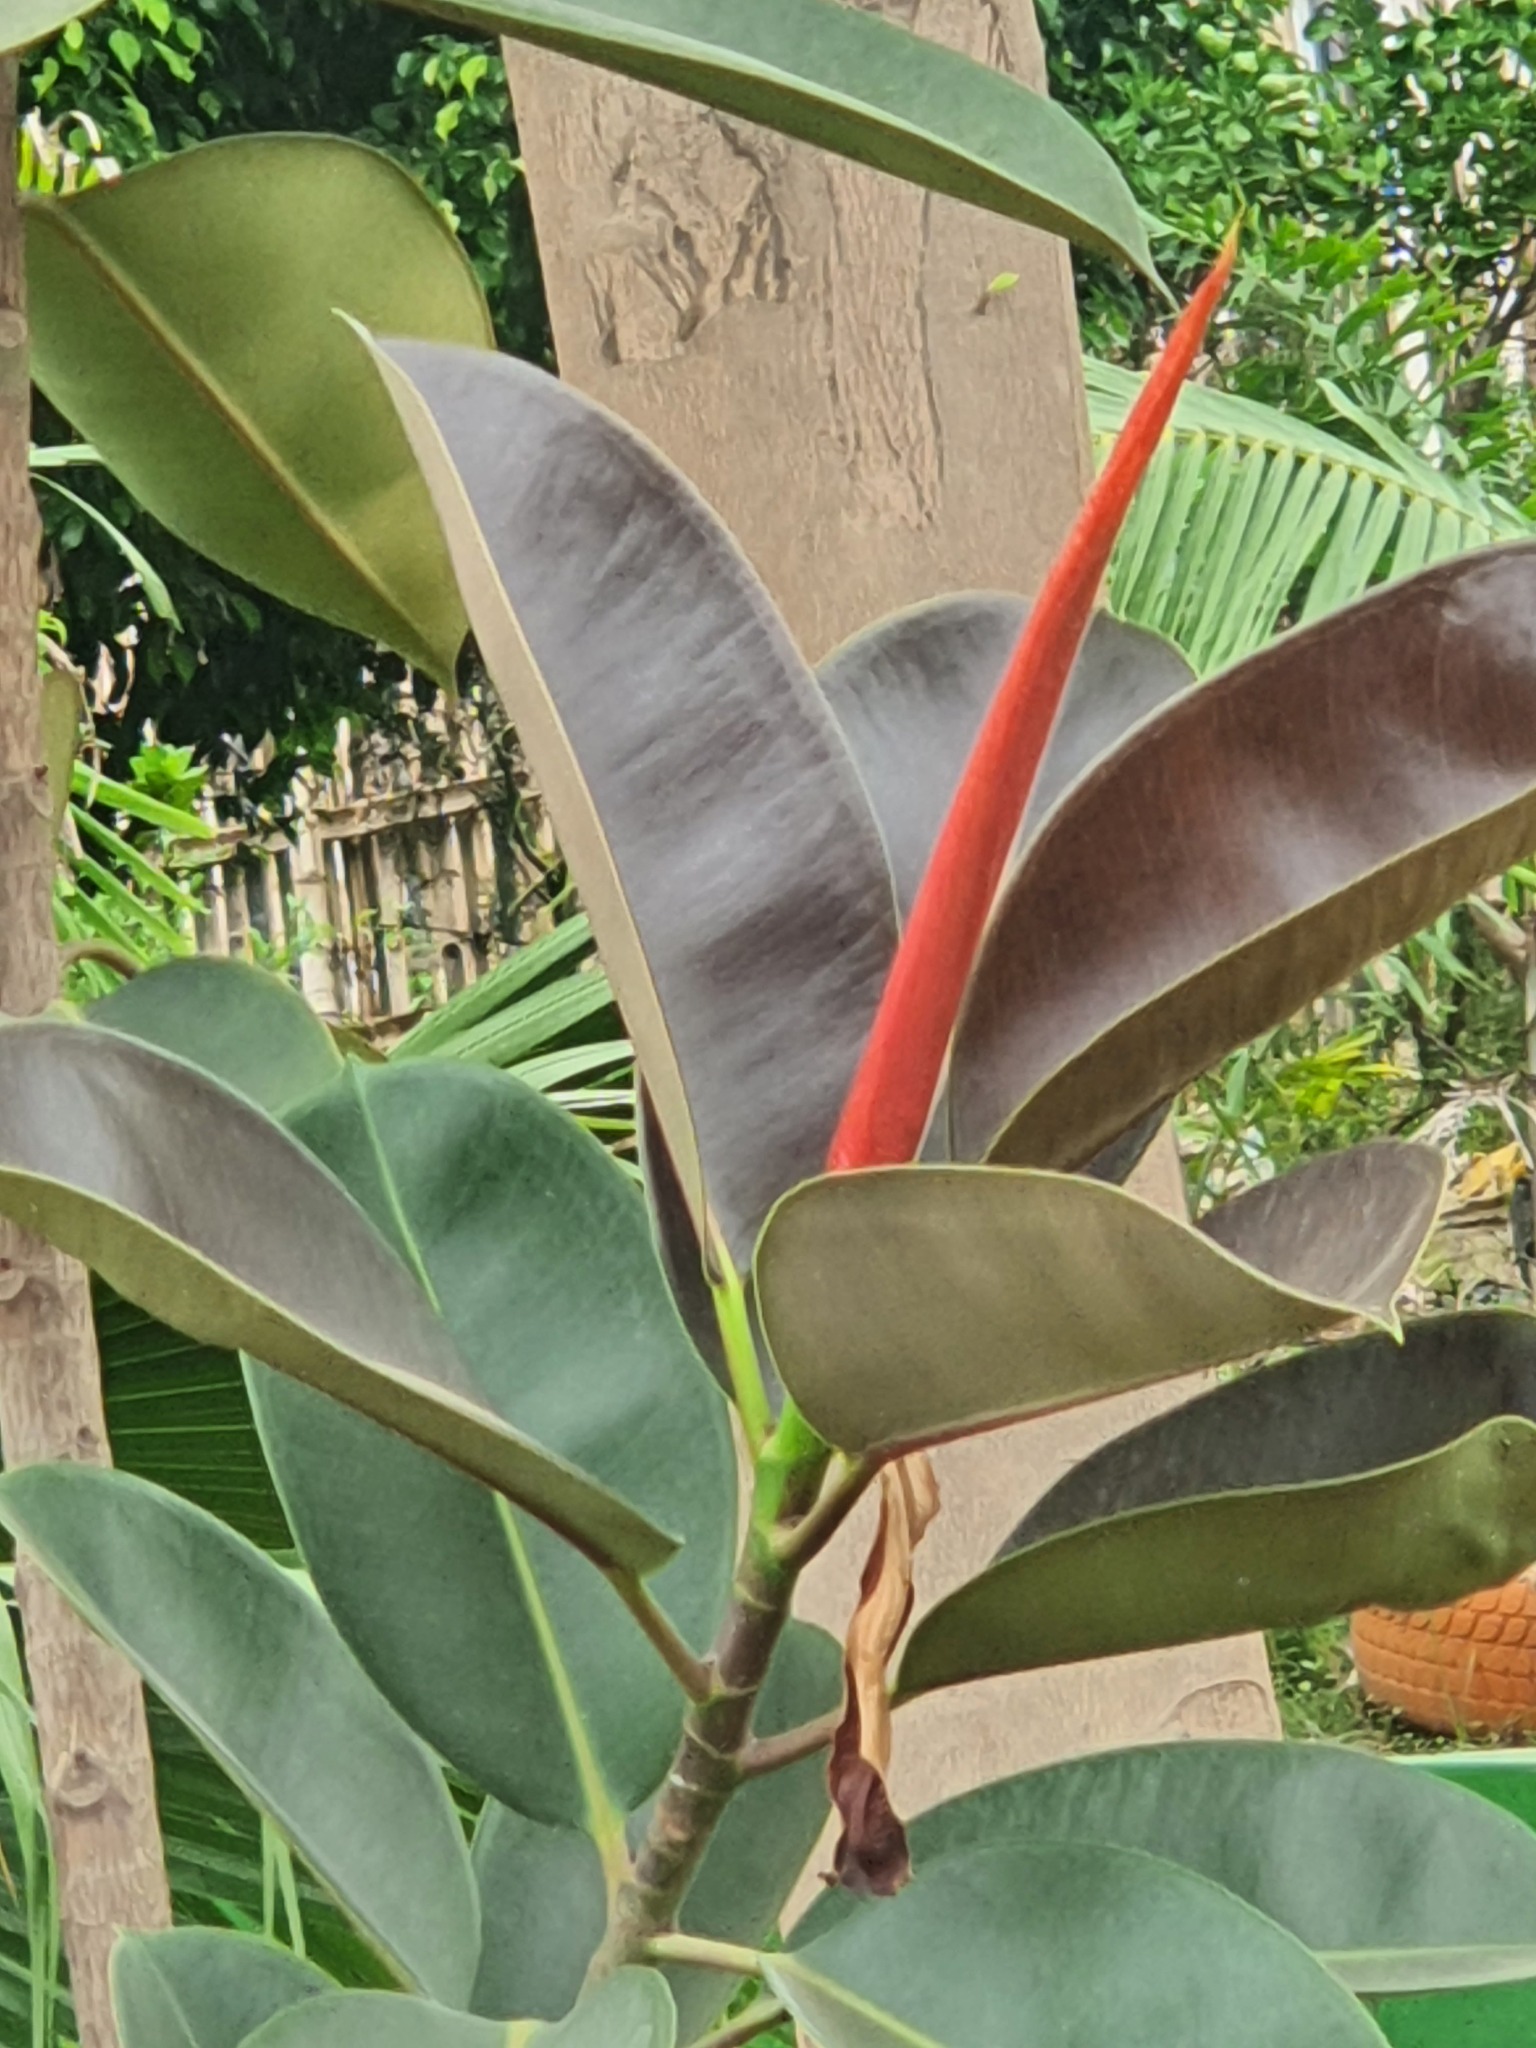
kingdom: Plantae
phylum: Tracheophyta
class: Magnoliopsida
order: Rosales
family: Moraceae
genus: Ficus
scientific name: Ficus elastica
